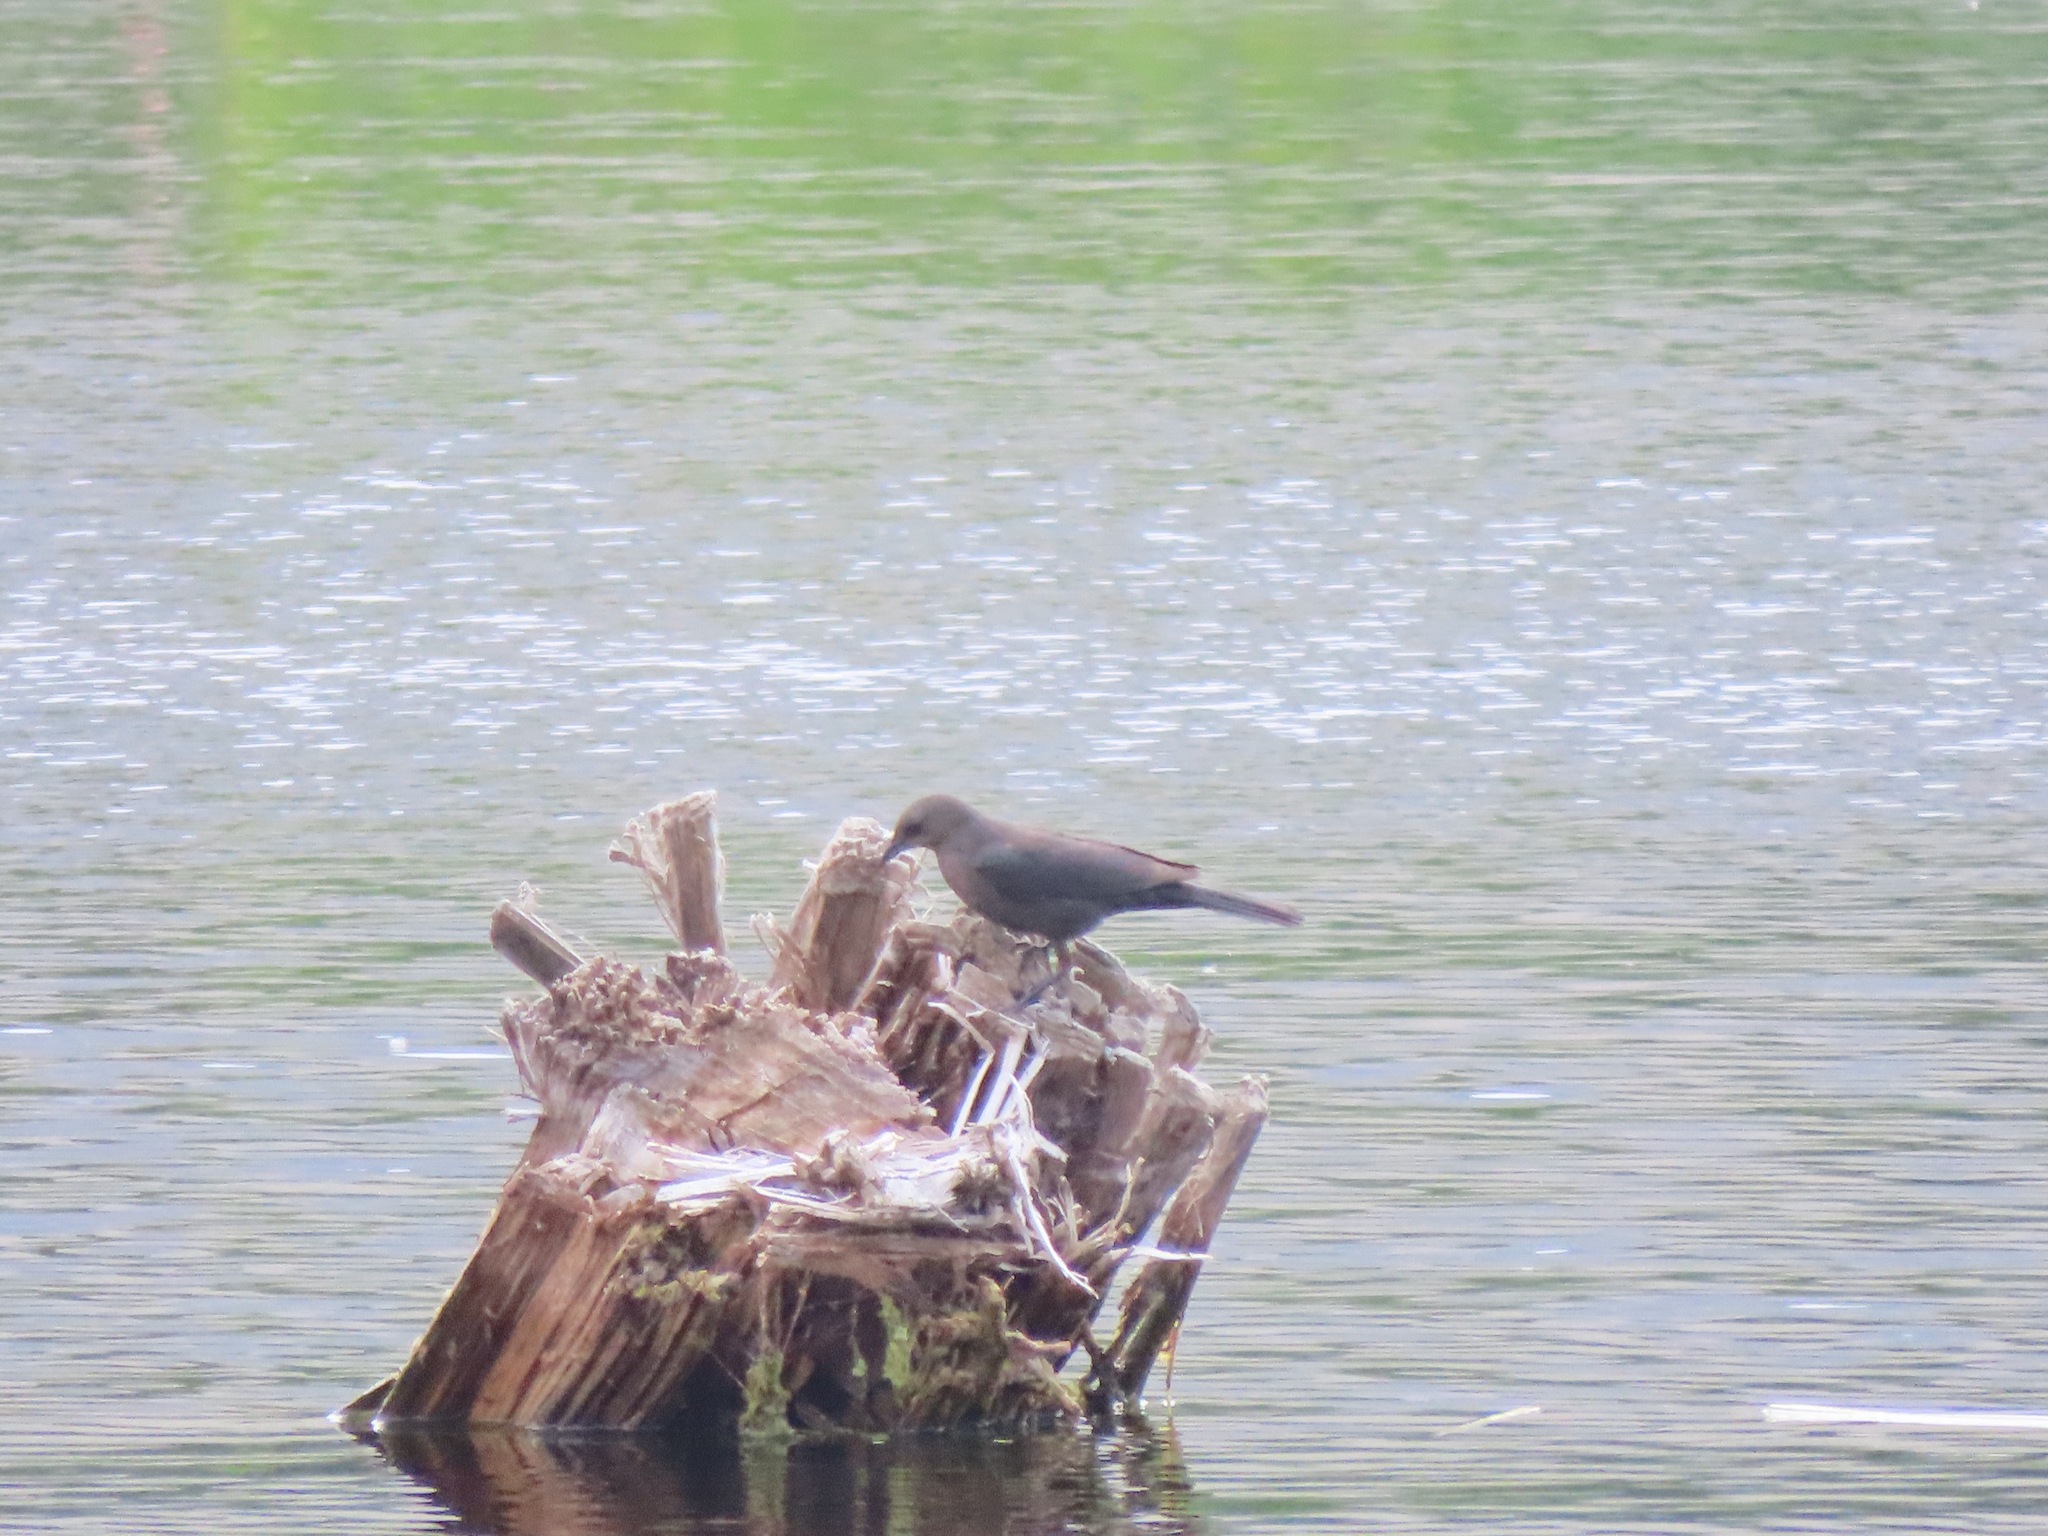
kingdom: Animalia
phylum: Chordata
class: Aves
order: Passeriformes
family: Icteridae
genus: Euphagus
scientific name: Euphagus cyanocephalus
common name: Brewer's blackbird
